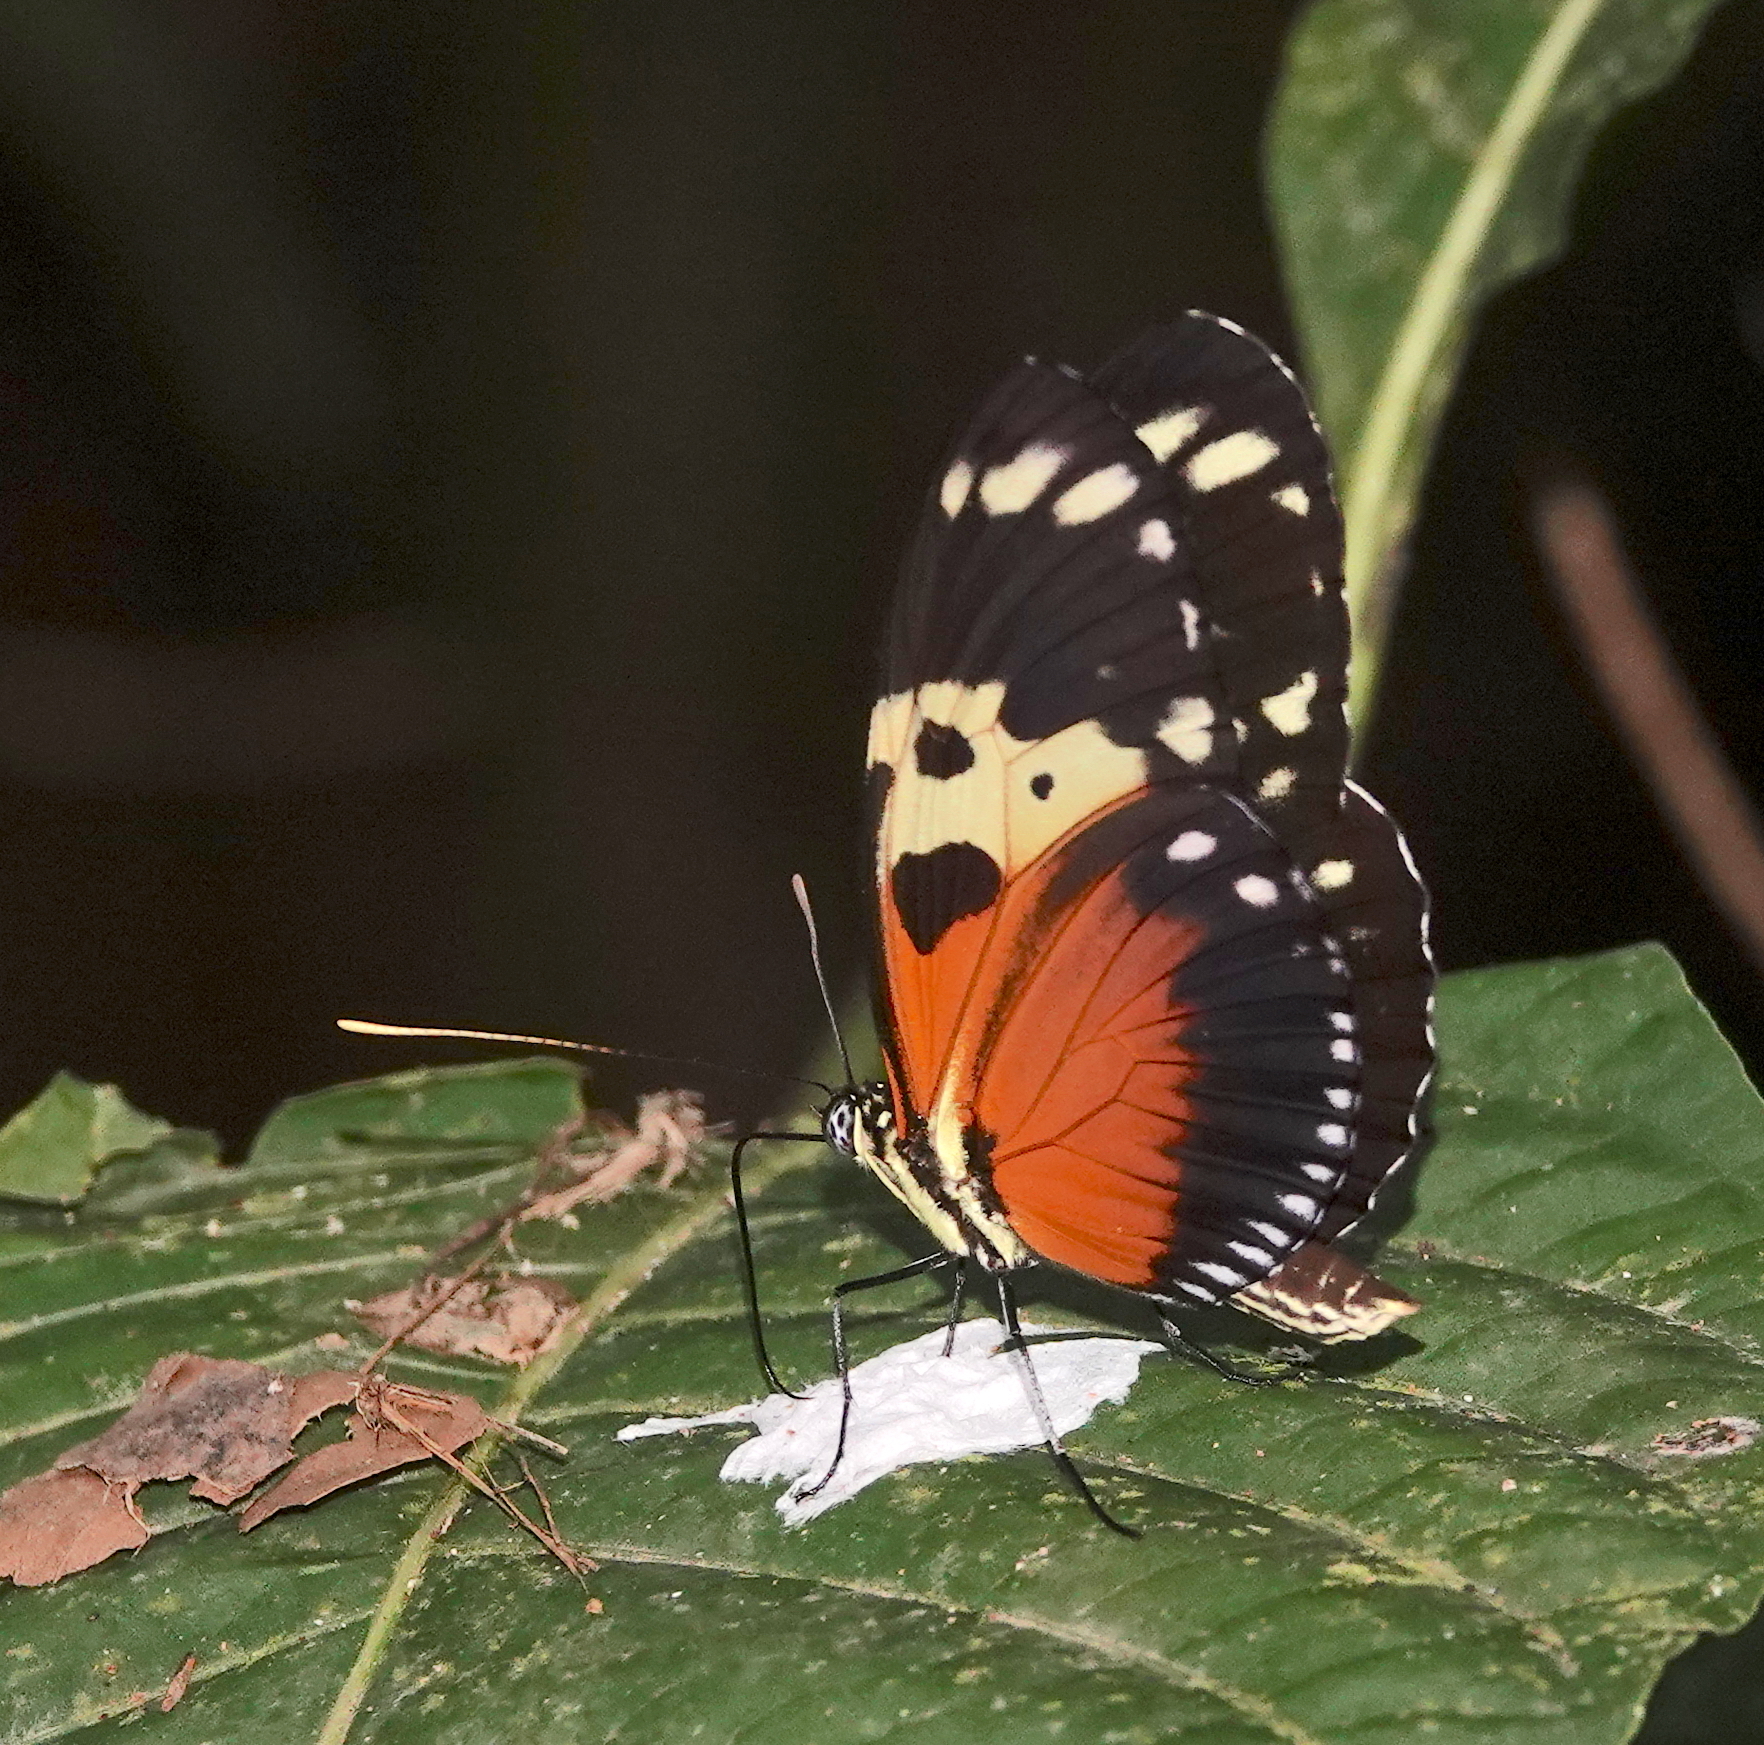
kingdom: Animalia
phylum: Arthropoda
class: Insecta
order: Lepidoptera
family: Nymphalidae
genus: Heliconius
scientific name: Heliconius hecale
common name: Tiger longwing
